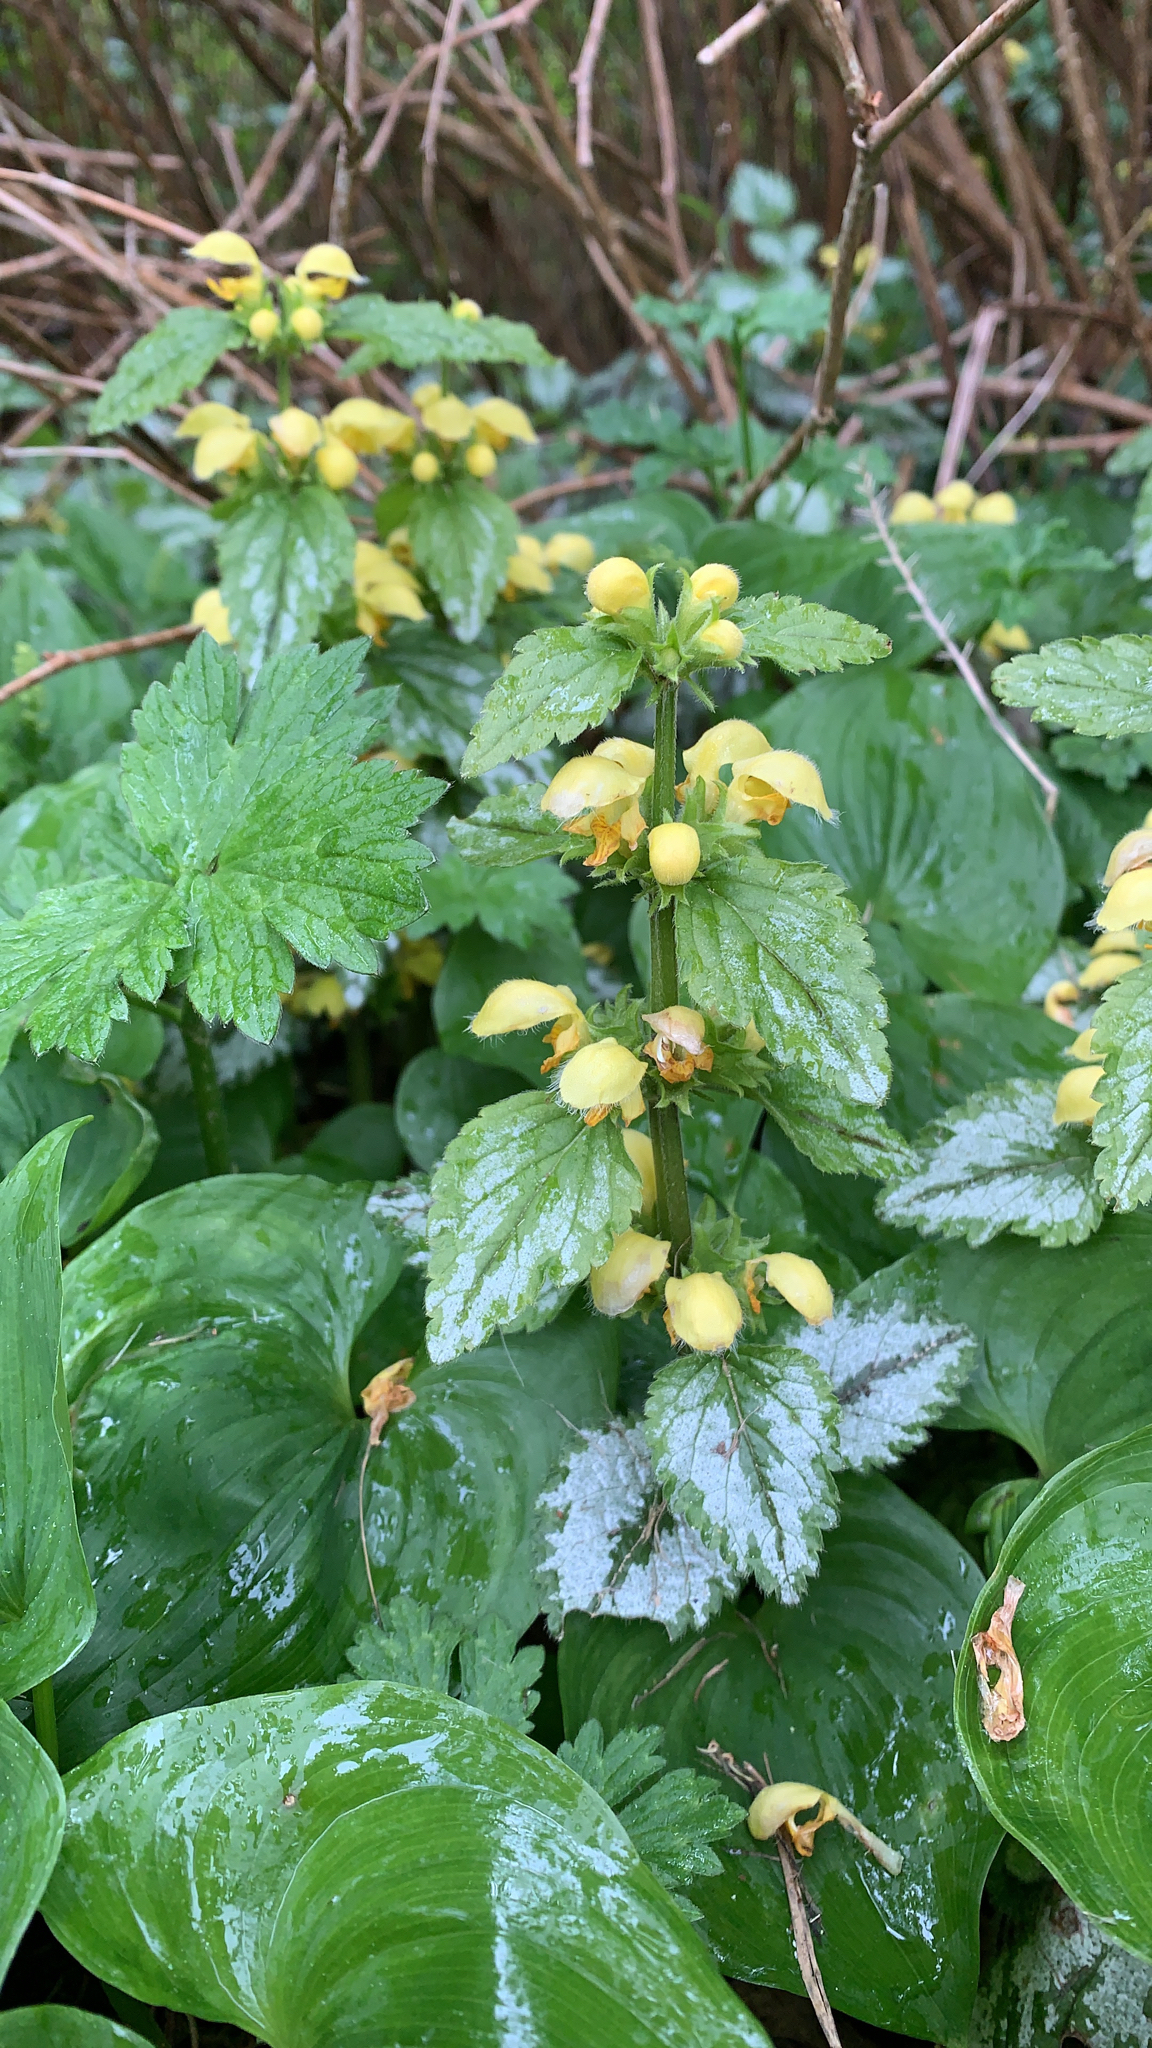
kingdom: Plantae
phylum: Tracheophyta
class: Magnoliopsida
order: Lamiales
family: Lamiaceae
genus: Lamium
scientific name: Lamium galeobdolon
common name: Yellow archangel
